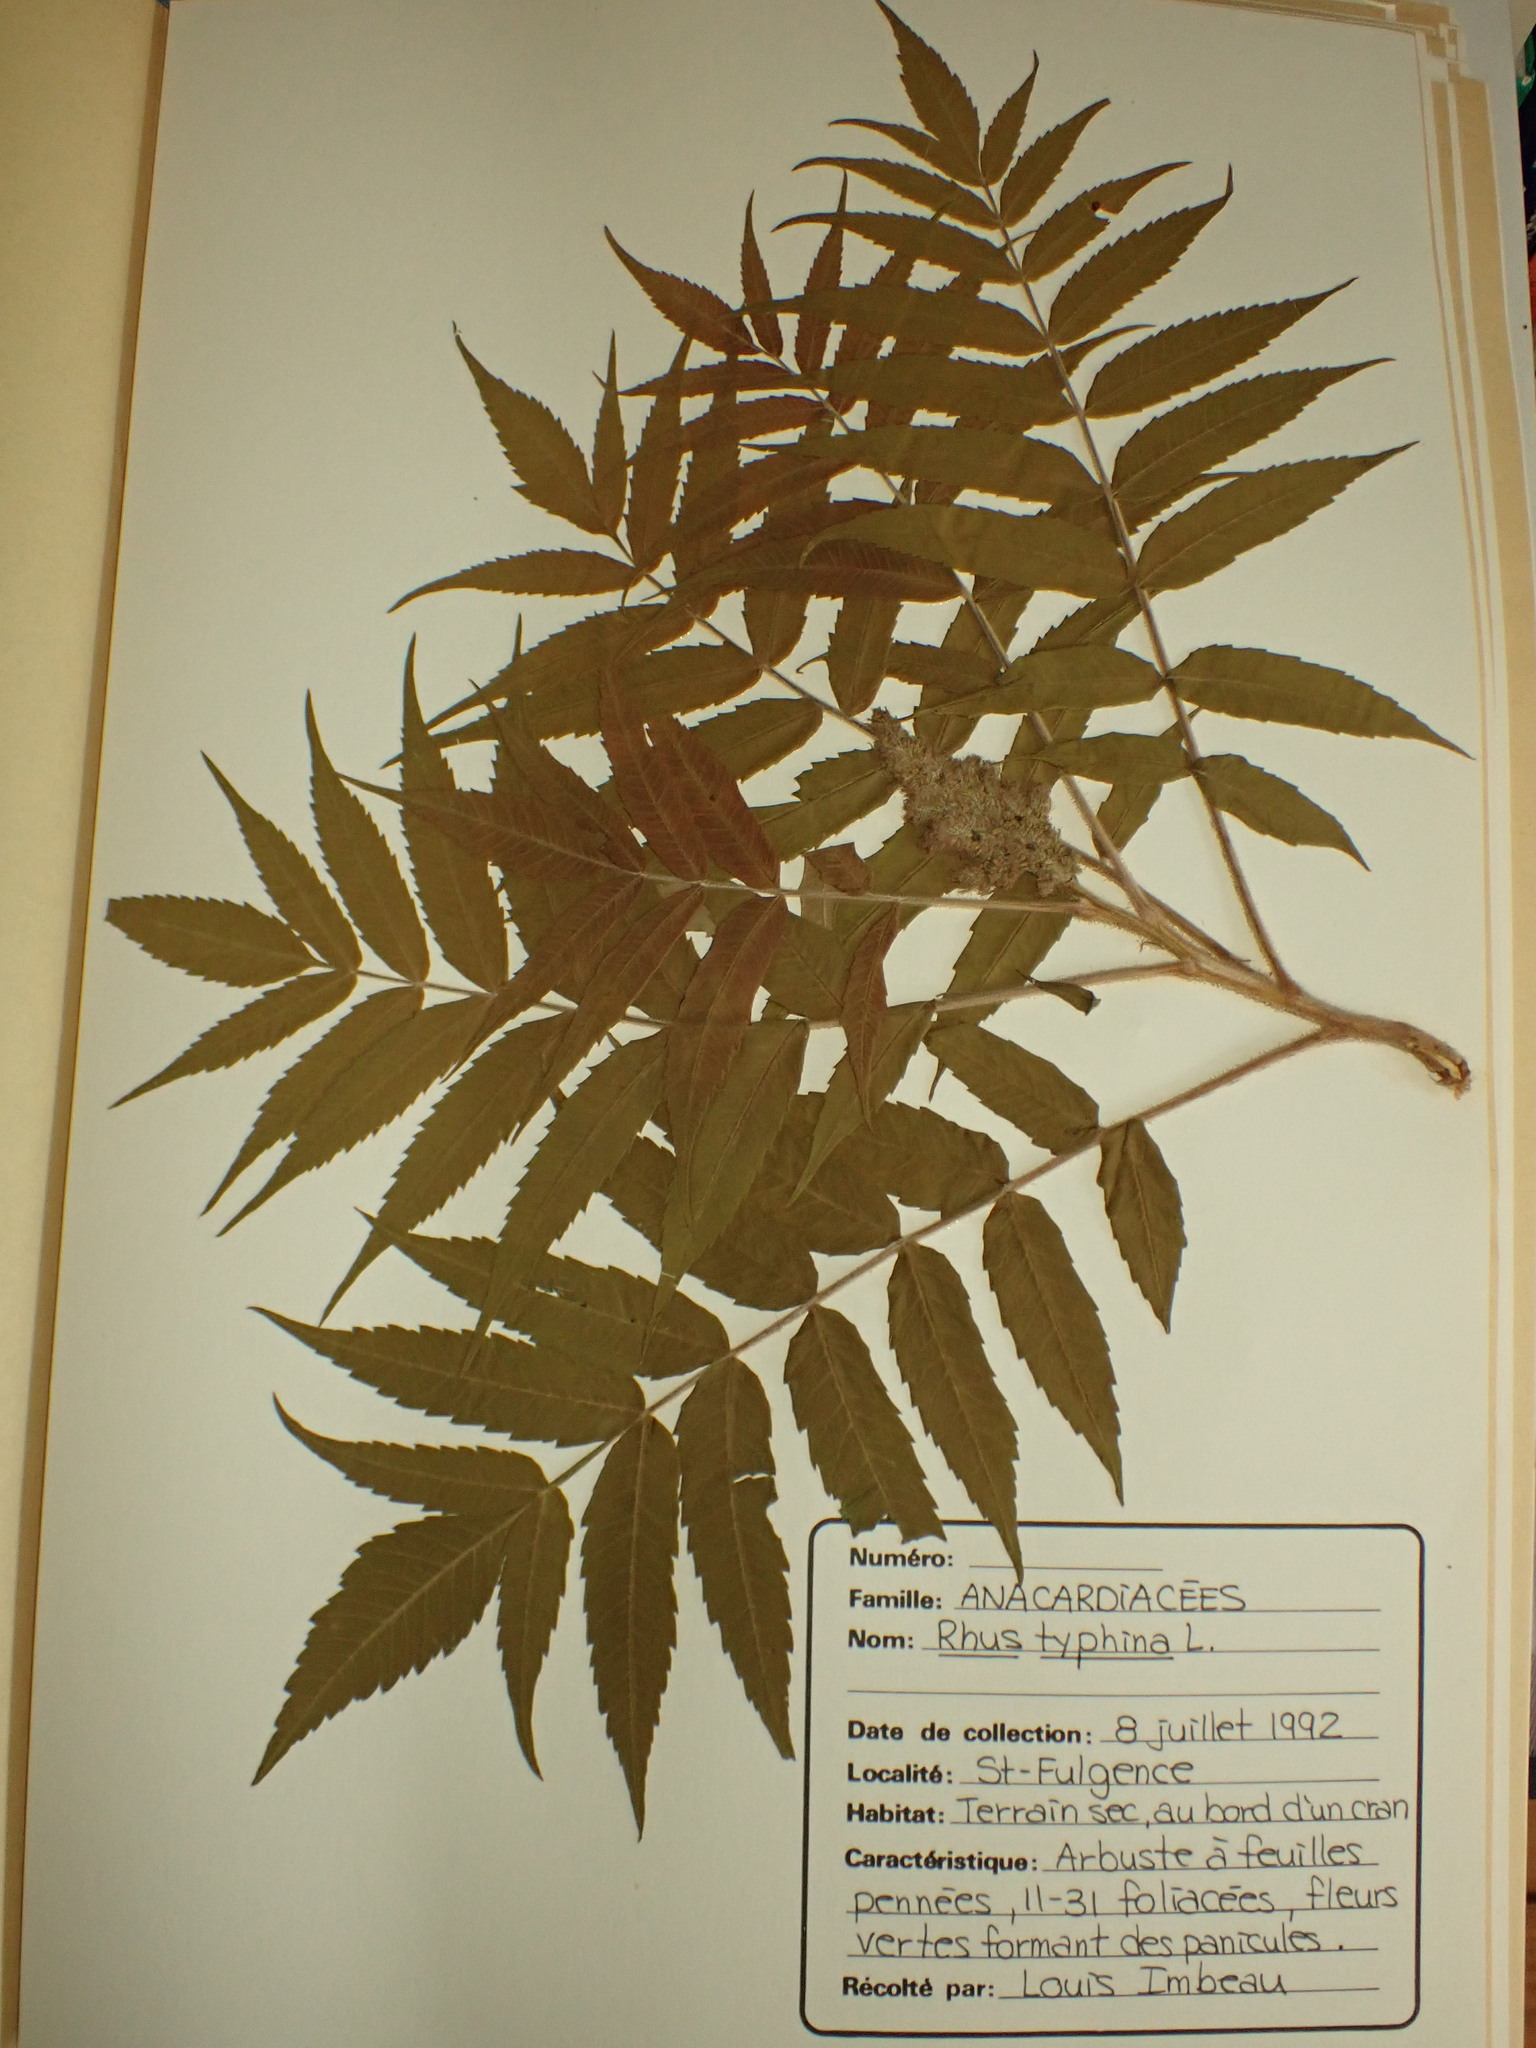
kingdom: Plantae
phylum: Tracheophyta
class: Magnoliopsida
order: Sapindales
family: Anacardiaceae
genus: Rhus
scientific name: Rhus typhina
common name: Staghorn sumac
